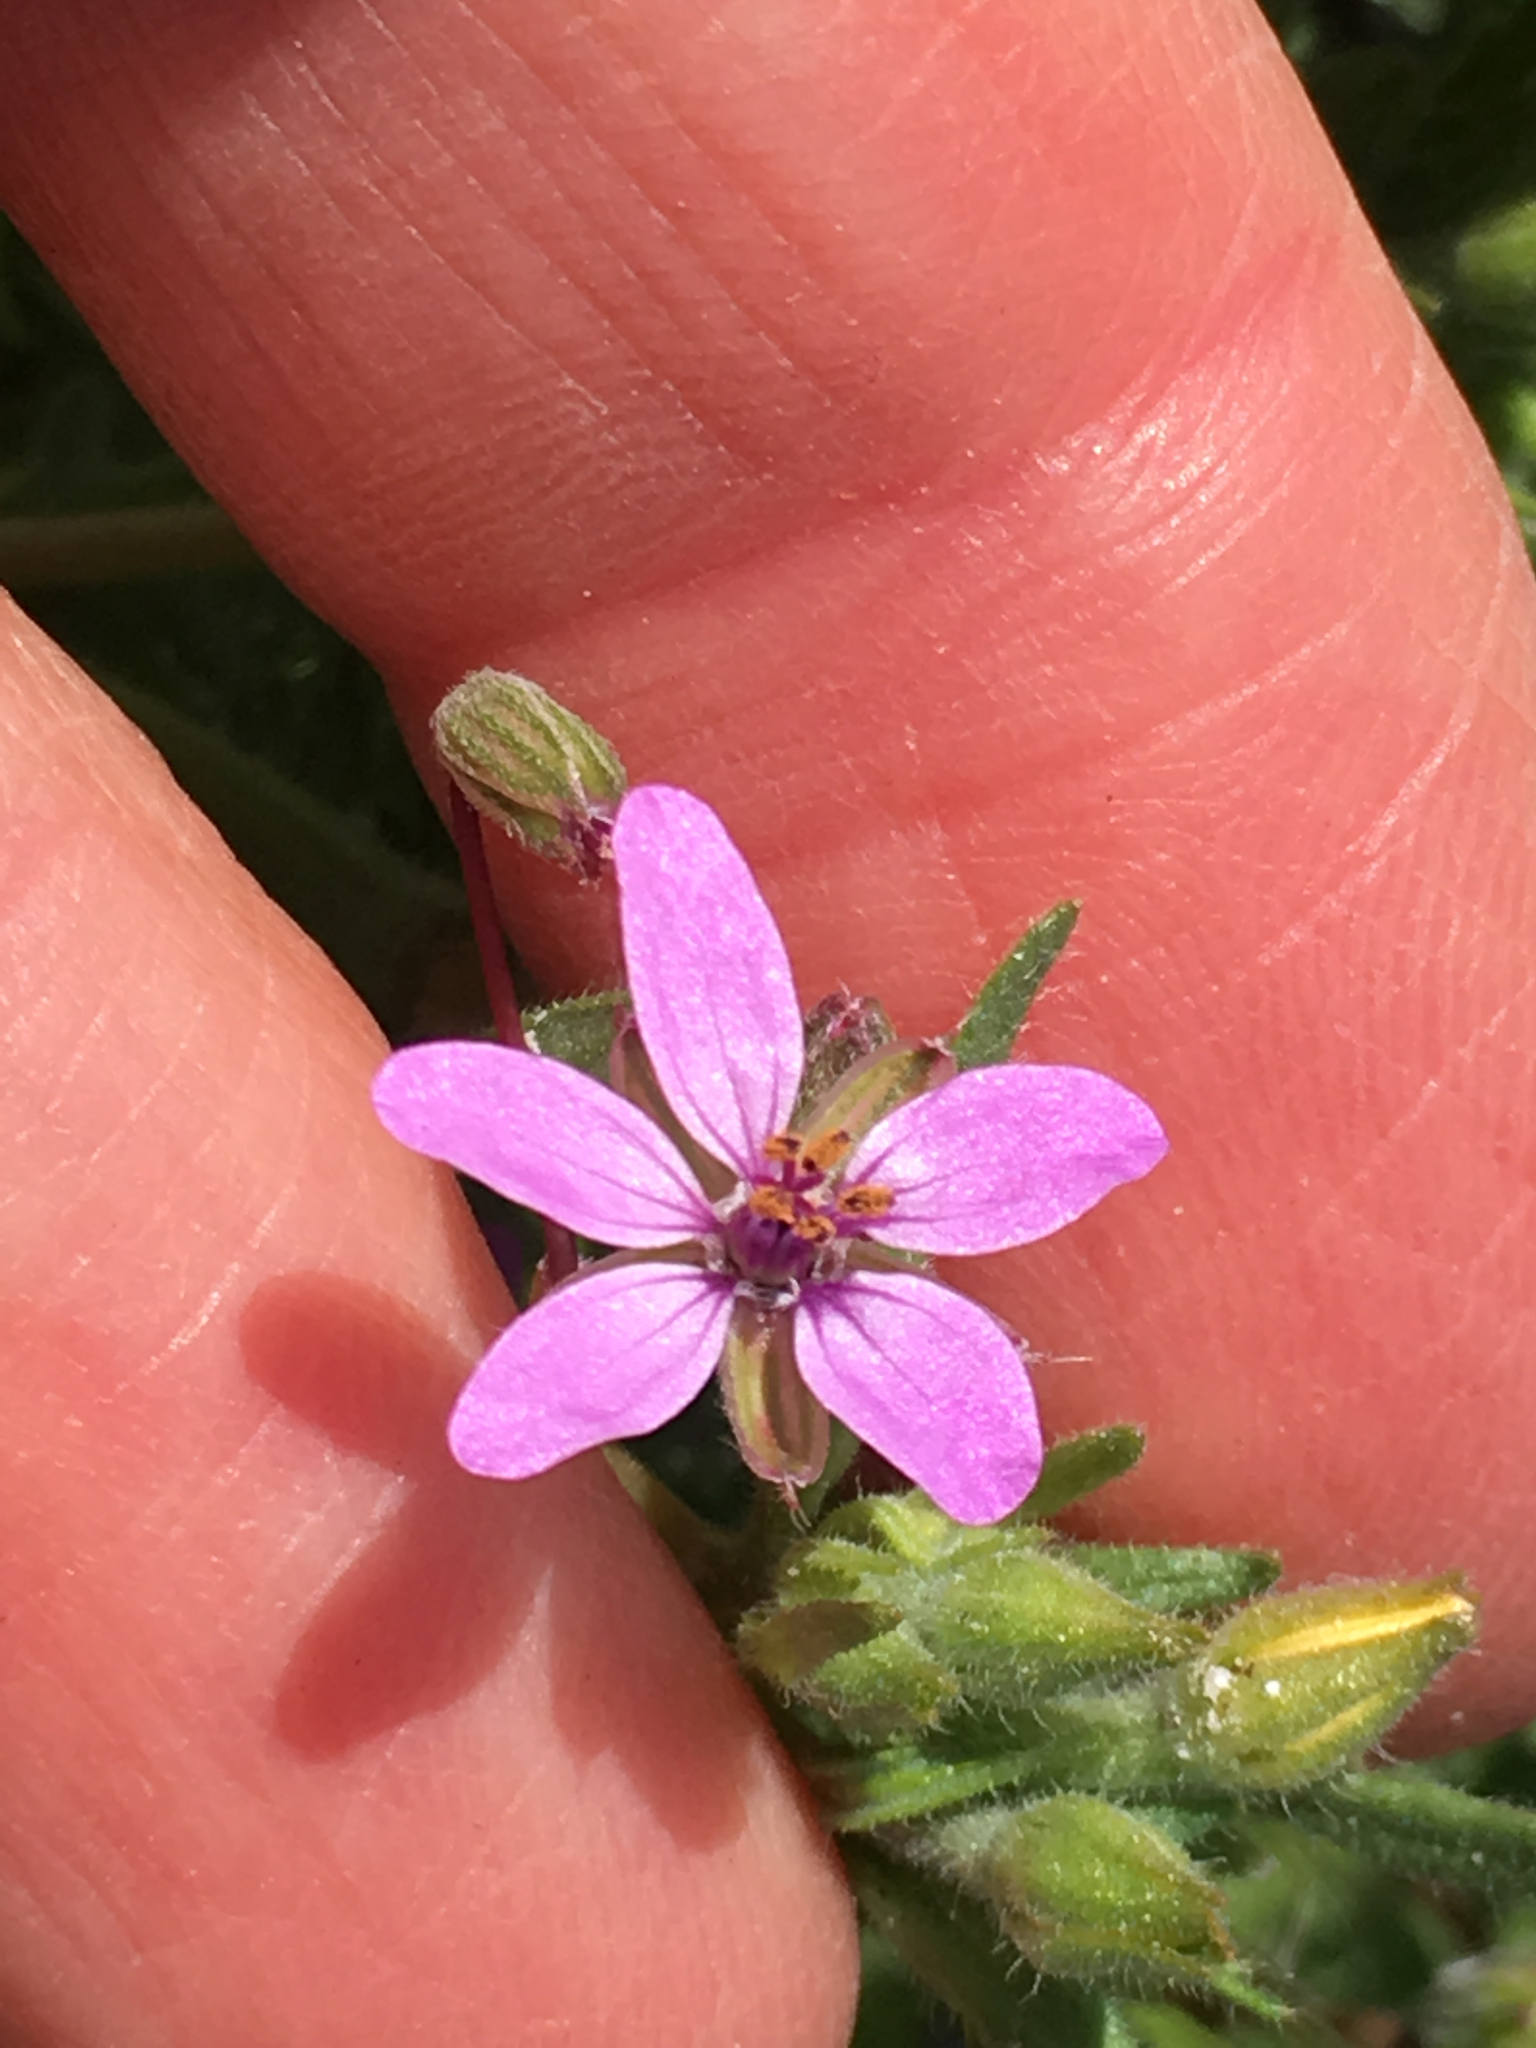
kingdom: Plantae
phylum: Tracheophyta
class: Magnoliopsida
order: Geraniales
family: Geraniaceae
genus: Erodium
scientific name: Erodium cicutarium
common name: Common stork's-bill
